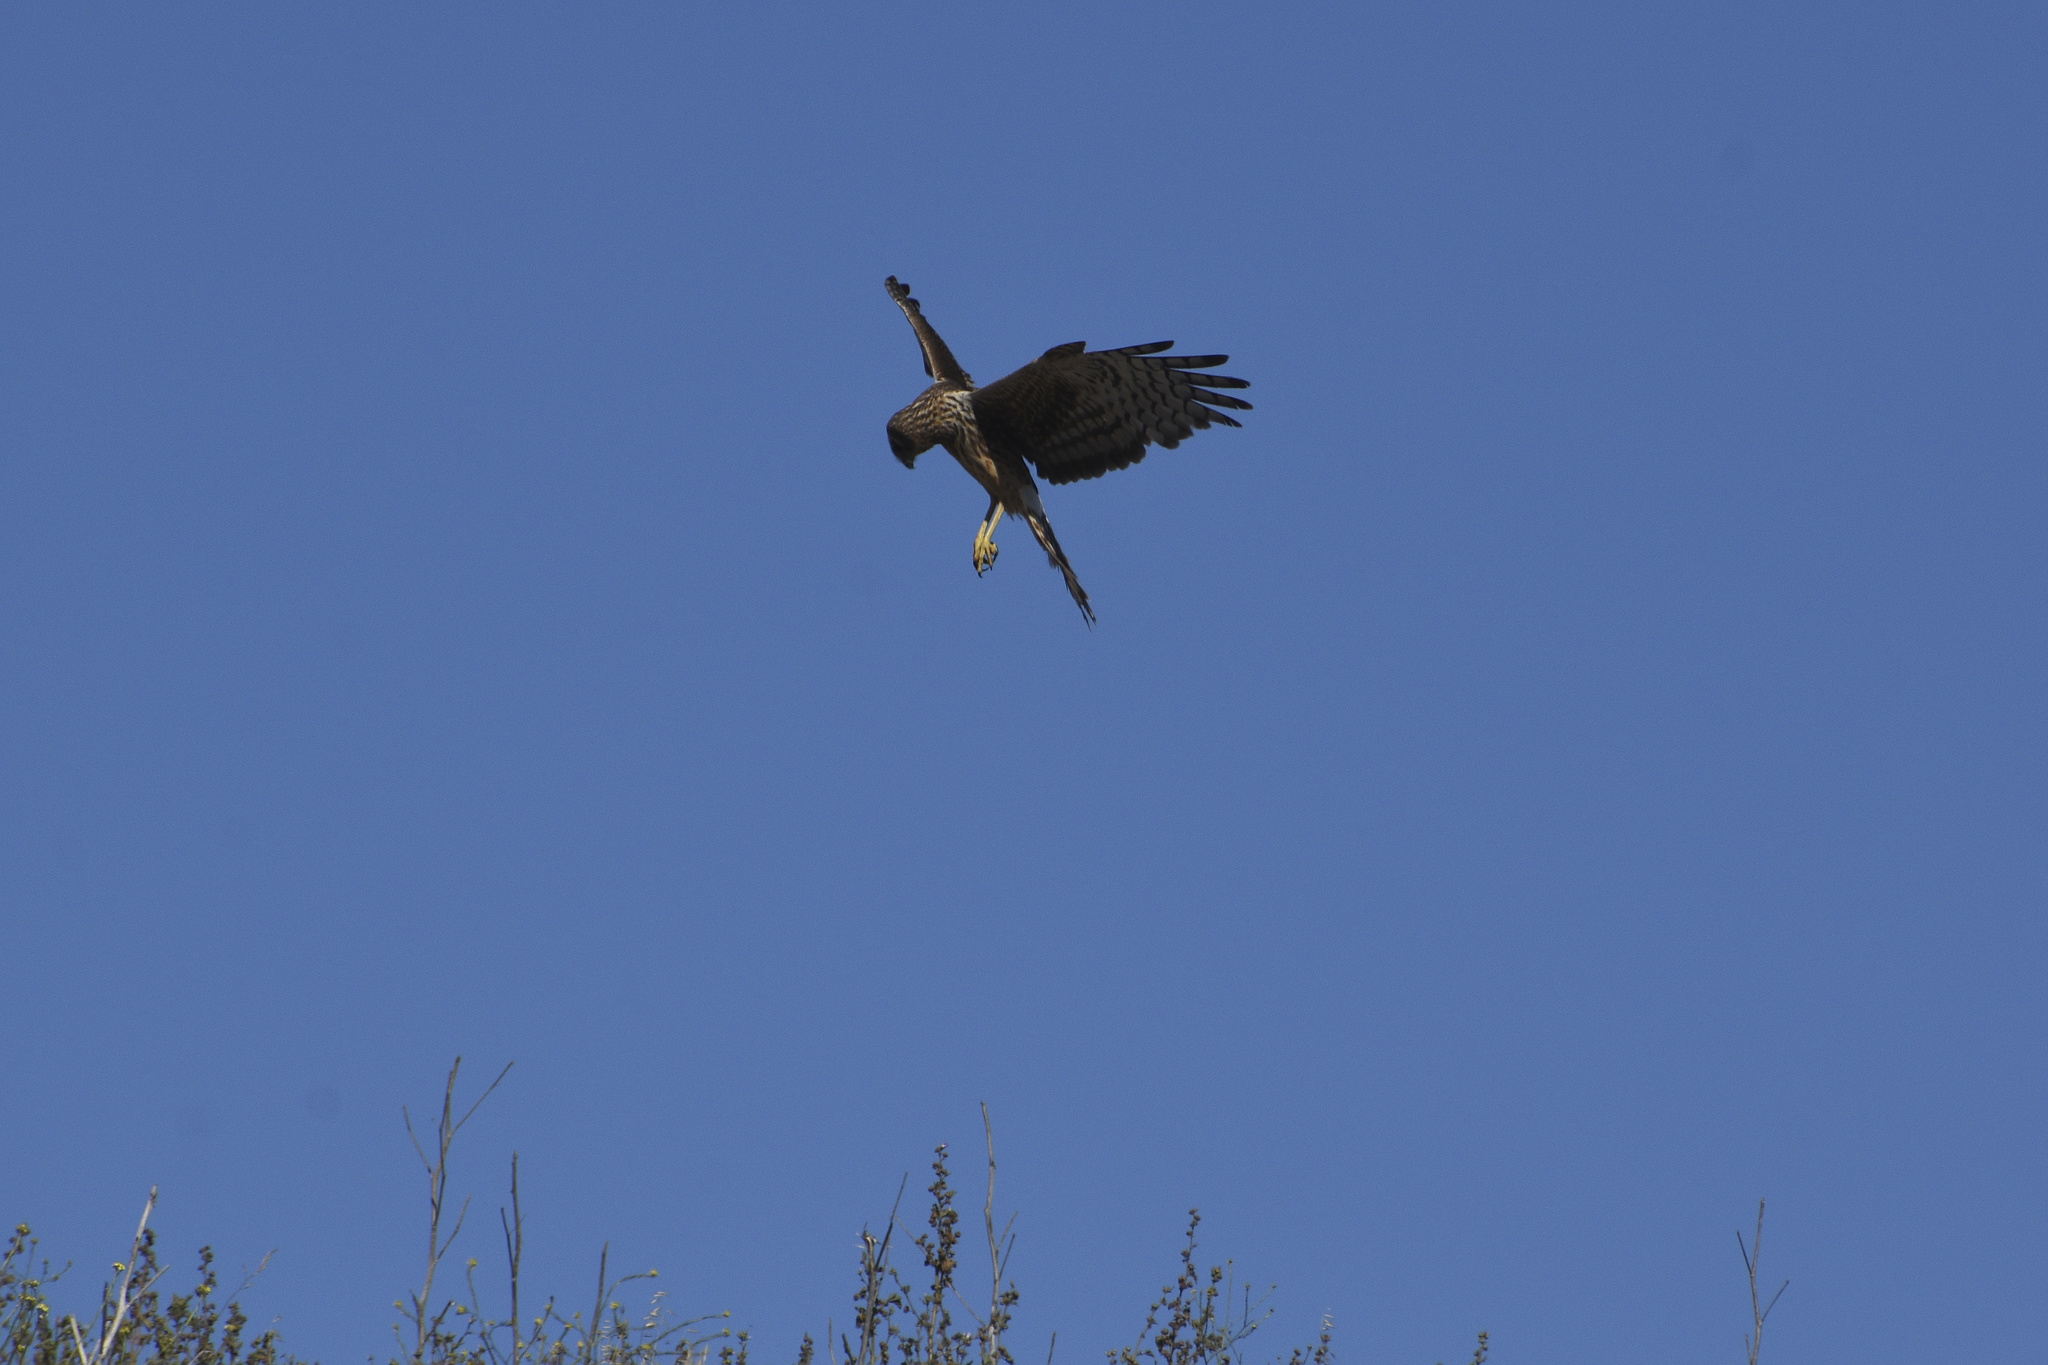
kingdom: Animalia
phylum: Chordata
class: Aves
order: Accipitriformes
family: Accipitridae
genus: Circus
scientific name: Circus cyaneus
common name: Hen harrier
